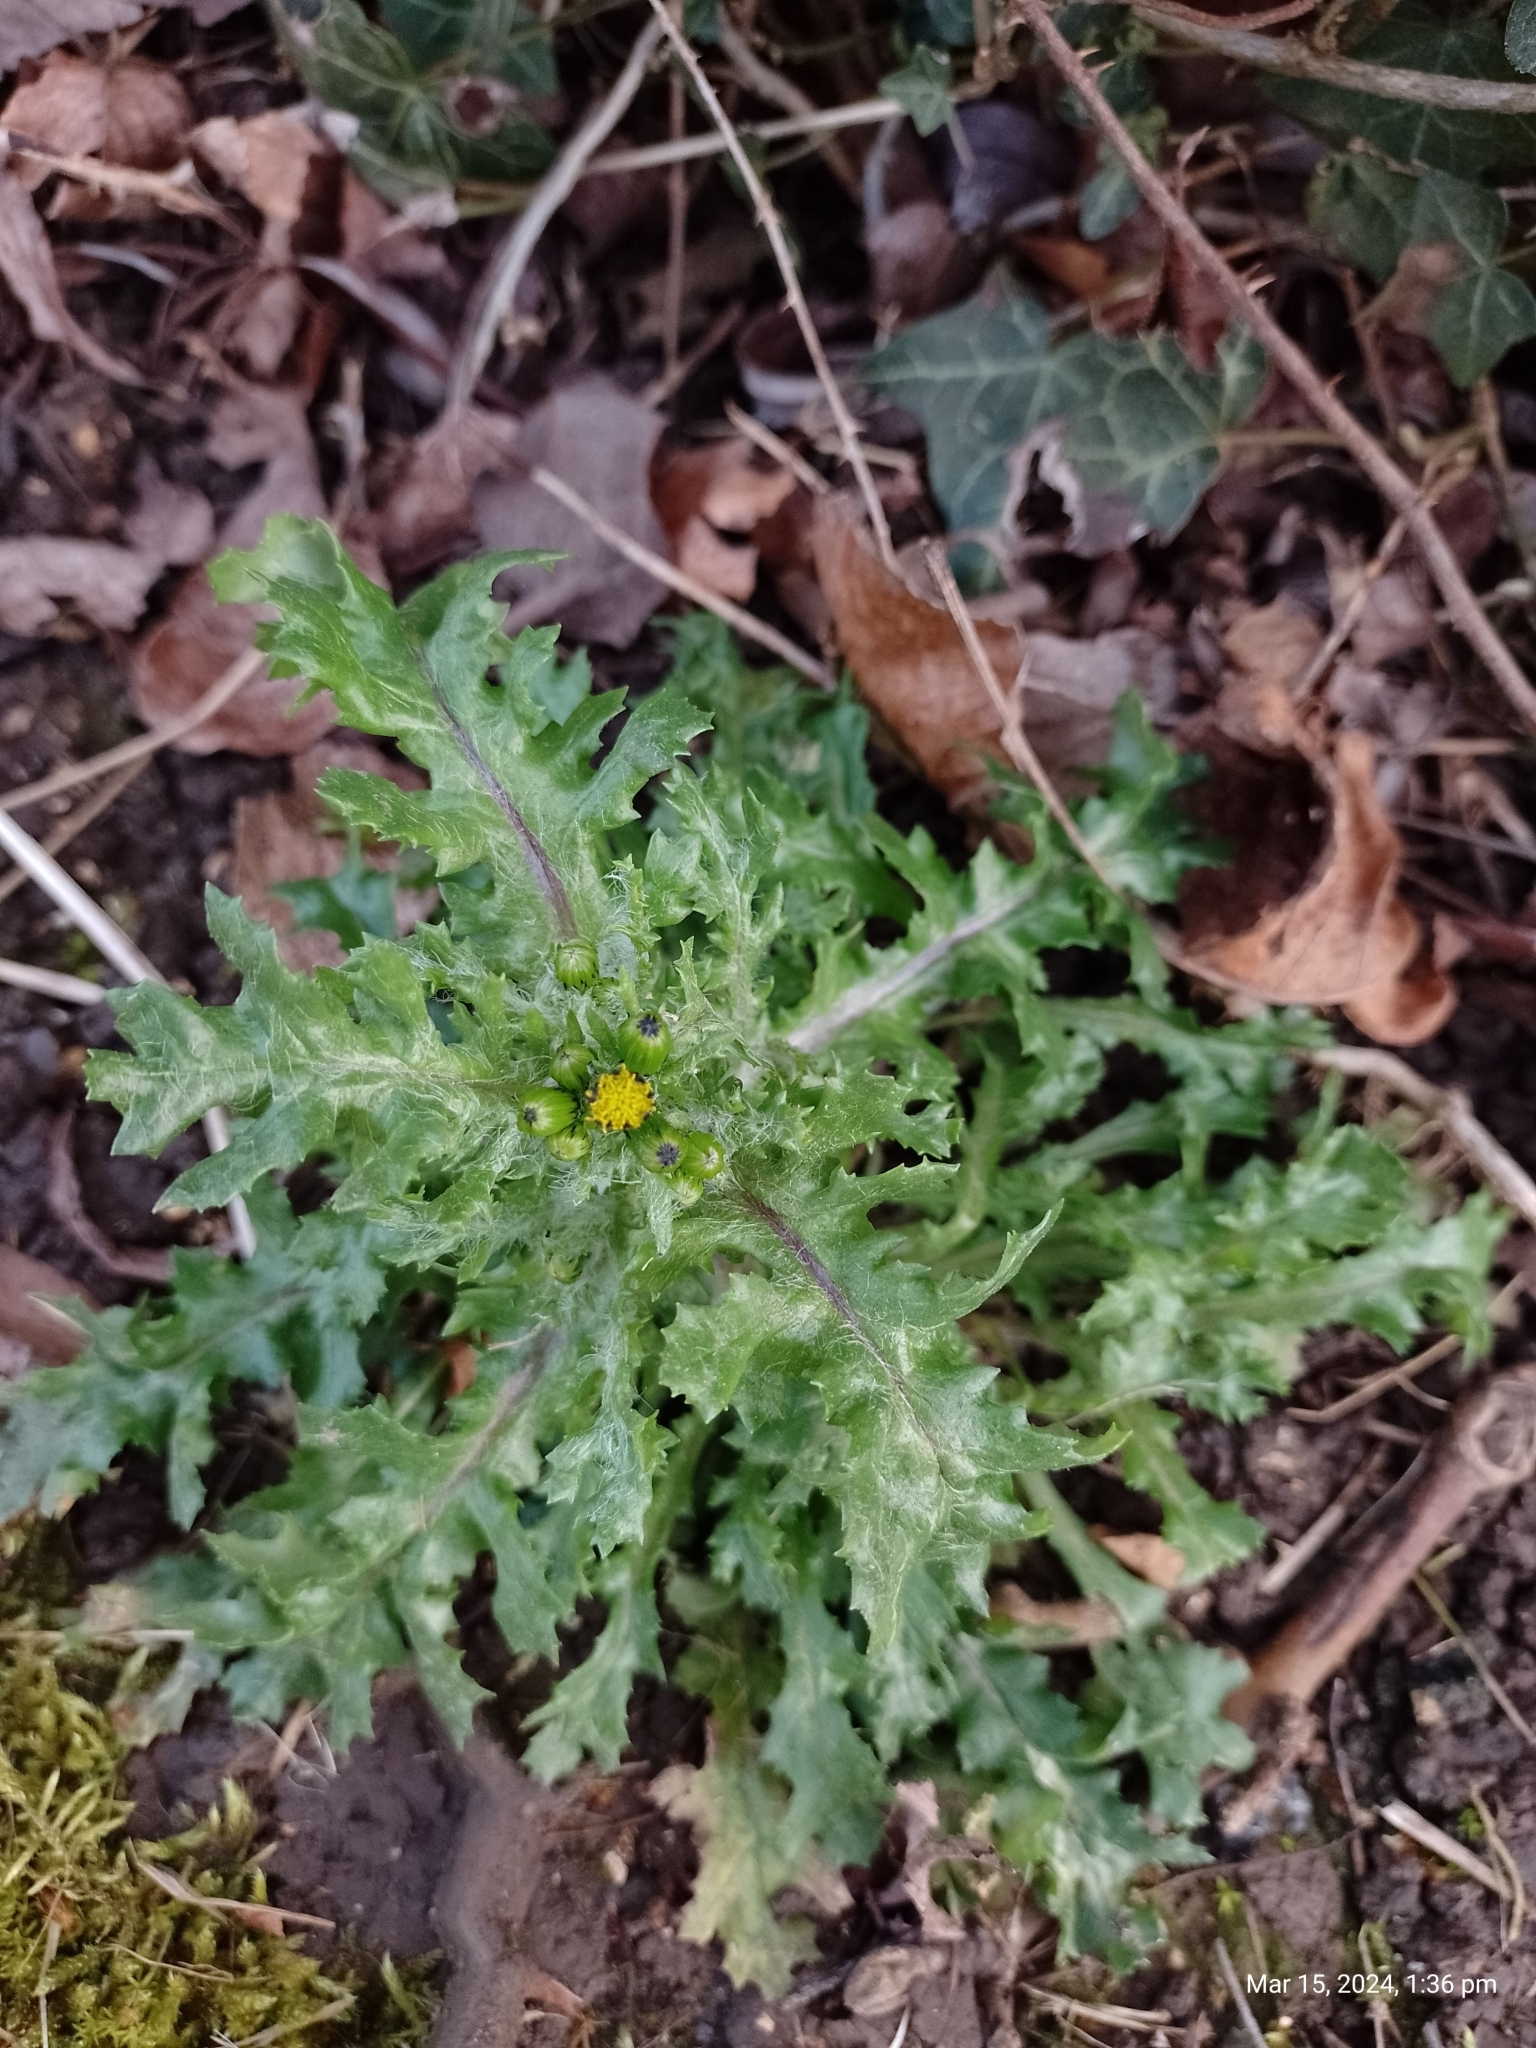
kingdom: Plantae
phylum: Tracheophyta
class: Magnoliopsida
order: Asterales
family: Asteraceae
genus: Senecio
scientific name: Senecio vulgaris
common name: Old-man-in-the-spring
